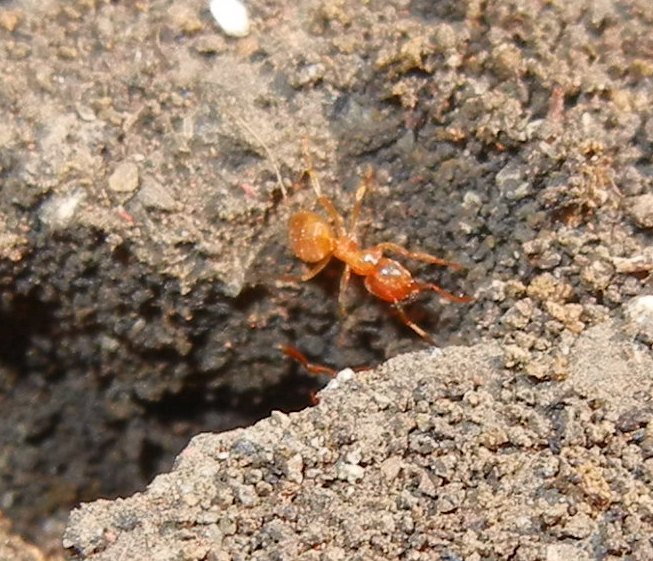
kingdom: Animalia
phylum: Arthropoda
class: Insecta
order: Hymenoptera
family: Formicidae
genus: Lasius
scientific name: Lasius flavus
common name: Blond field ant
